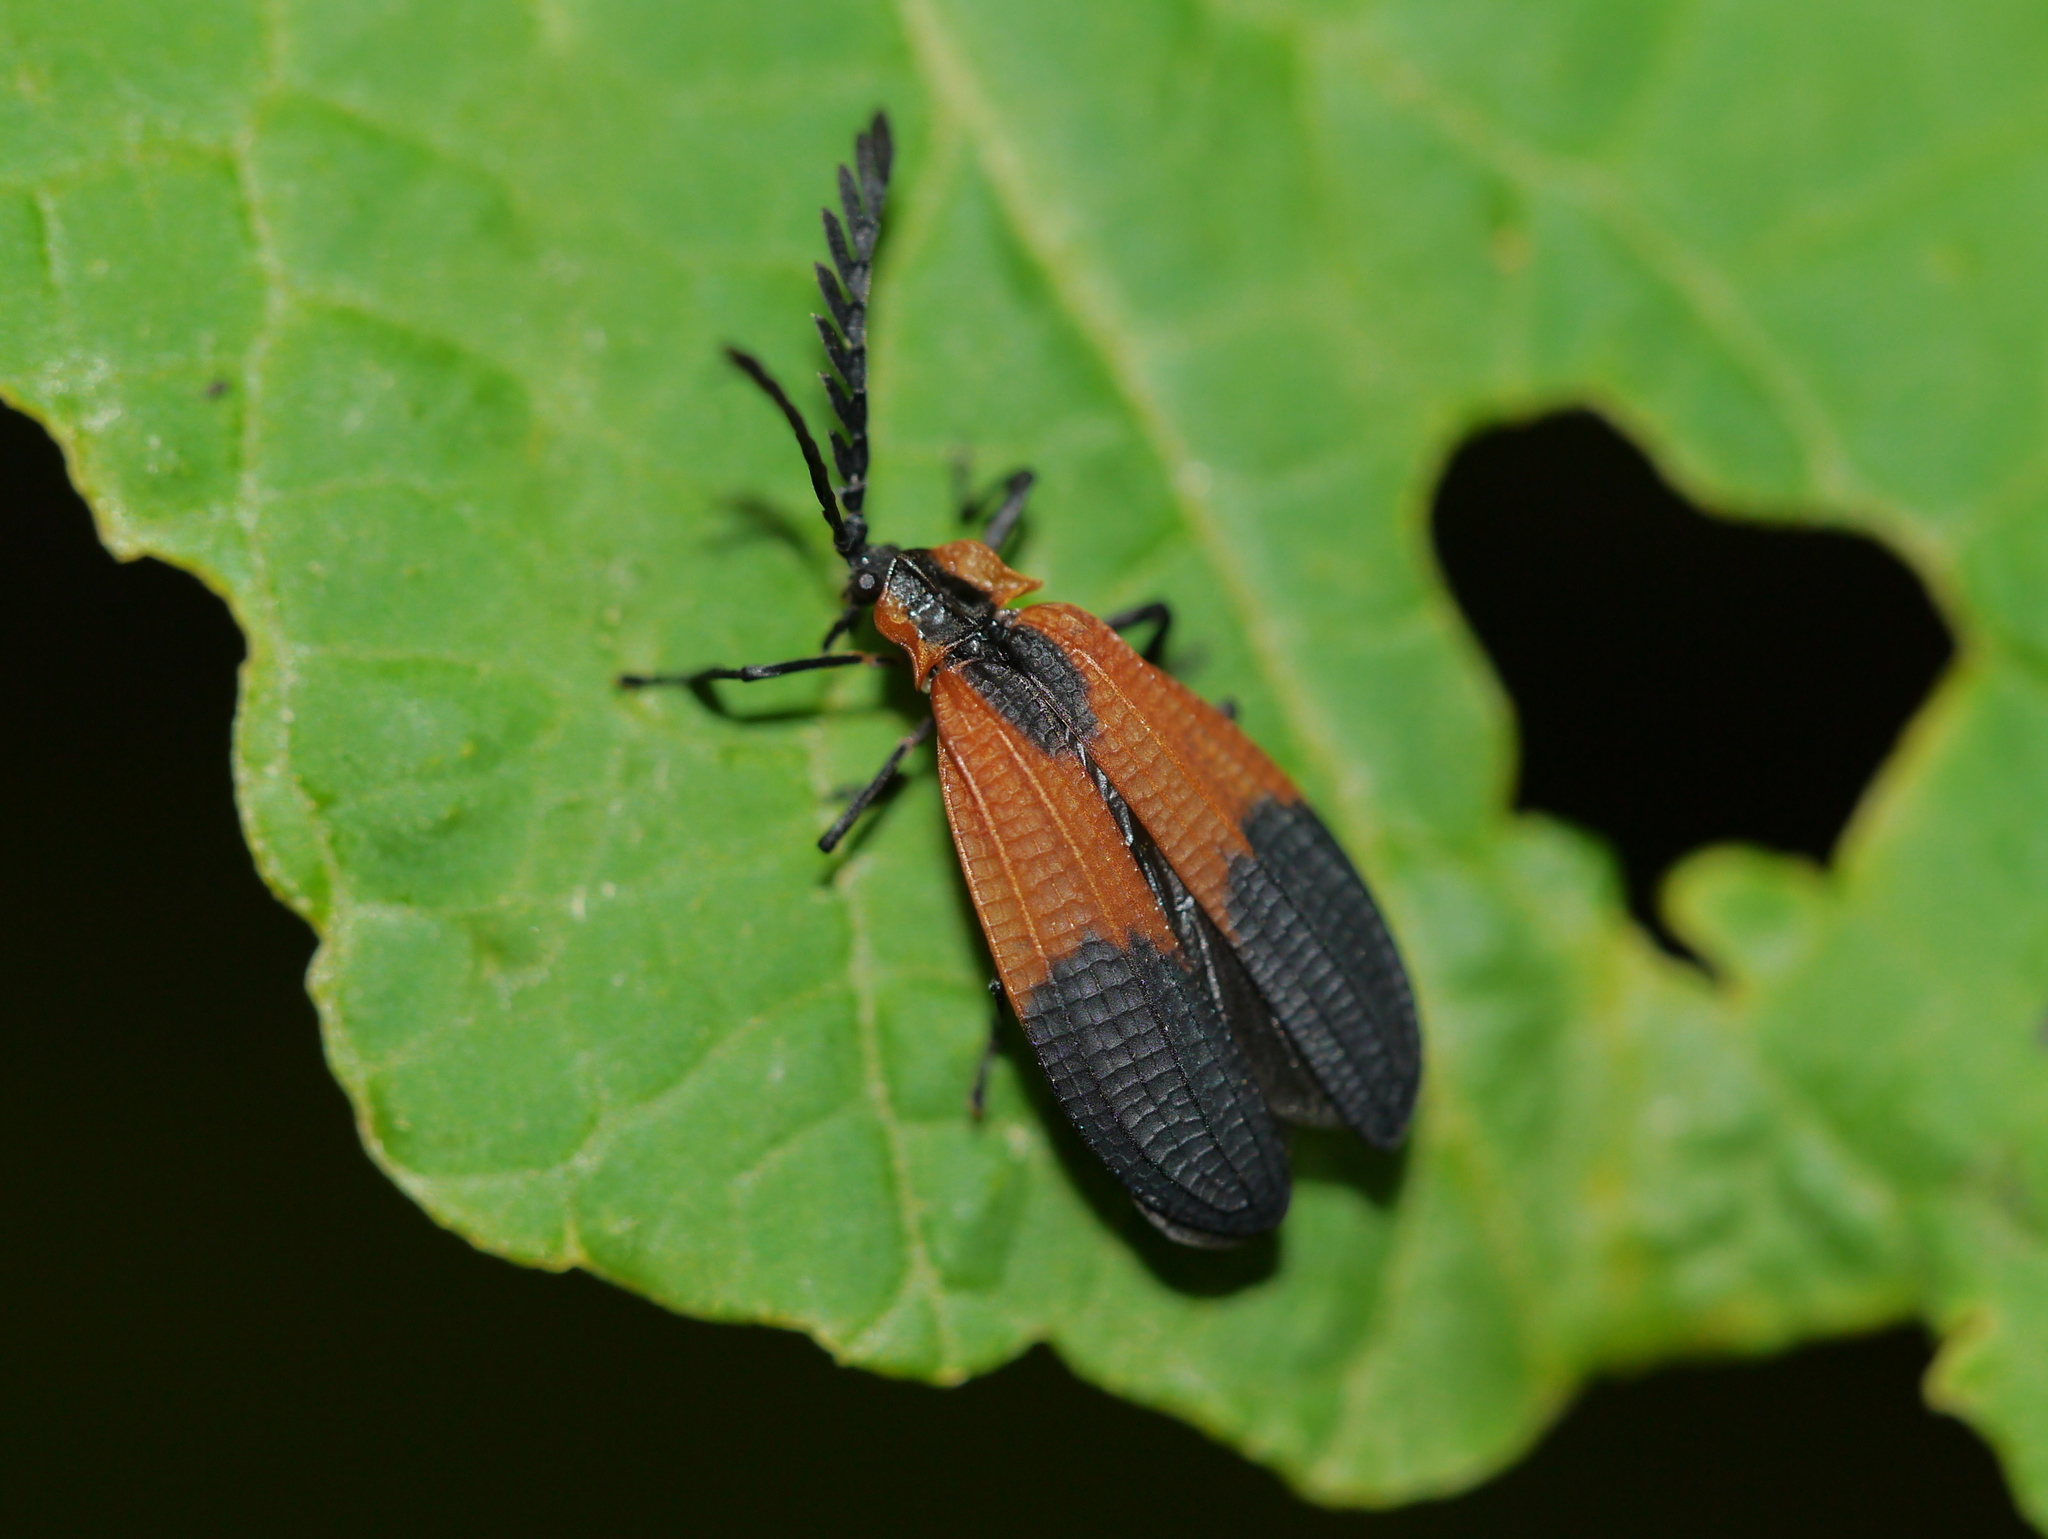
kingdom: Animalia
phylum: Arthropoda
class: Insecta
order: Coleoptera
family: Lycidae
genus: Caenia
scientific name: Caenia dimidiata
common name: Terminal net-winged beetle
